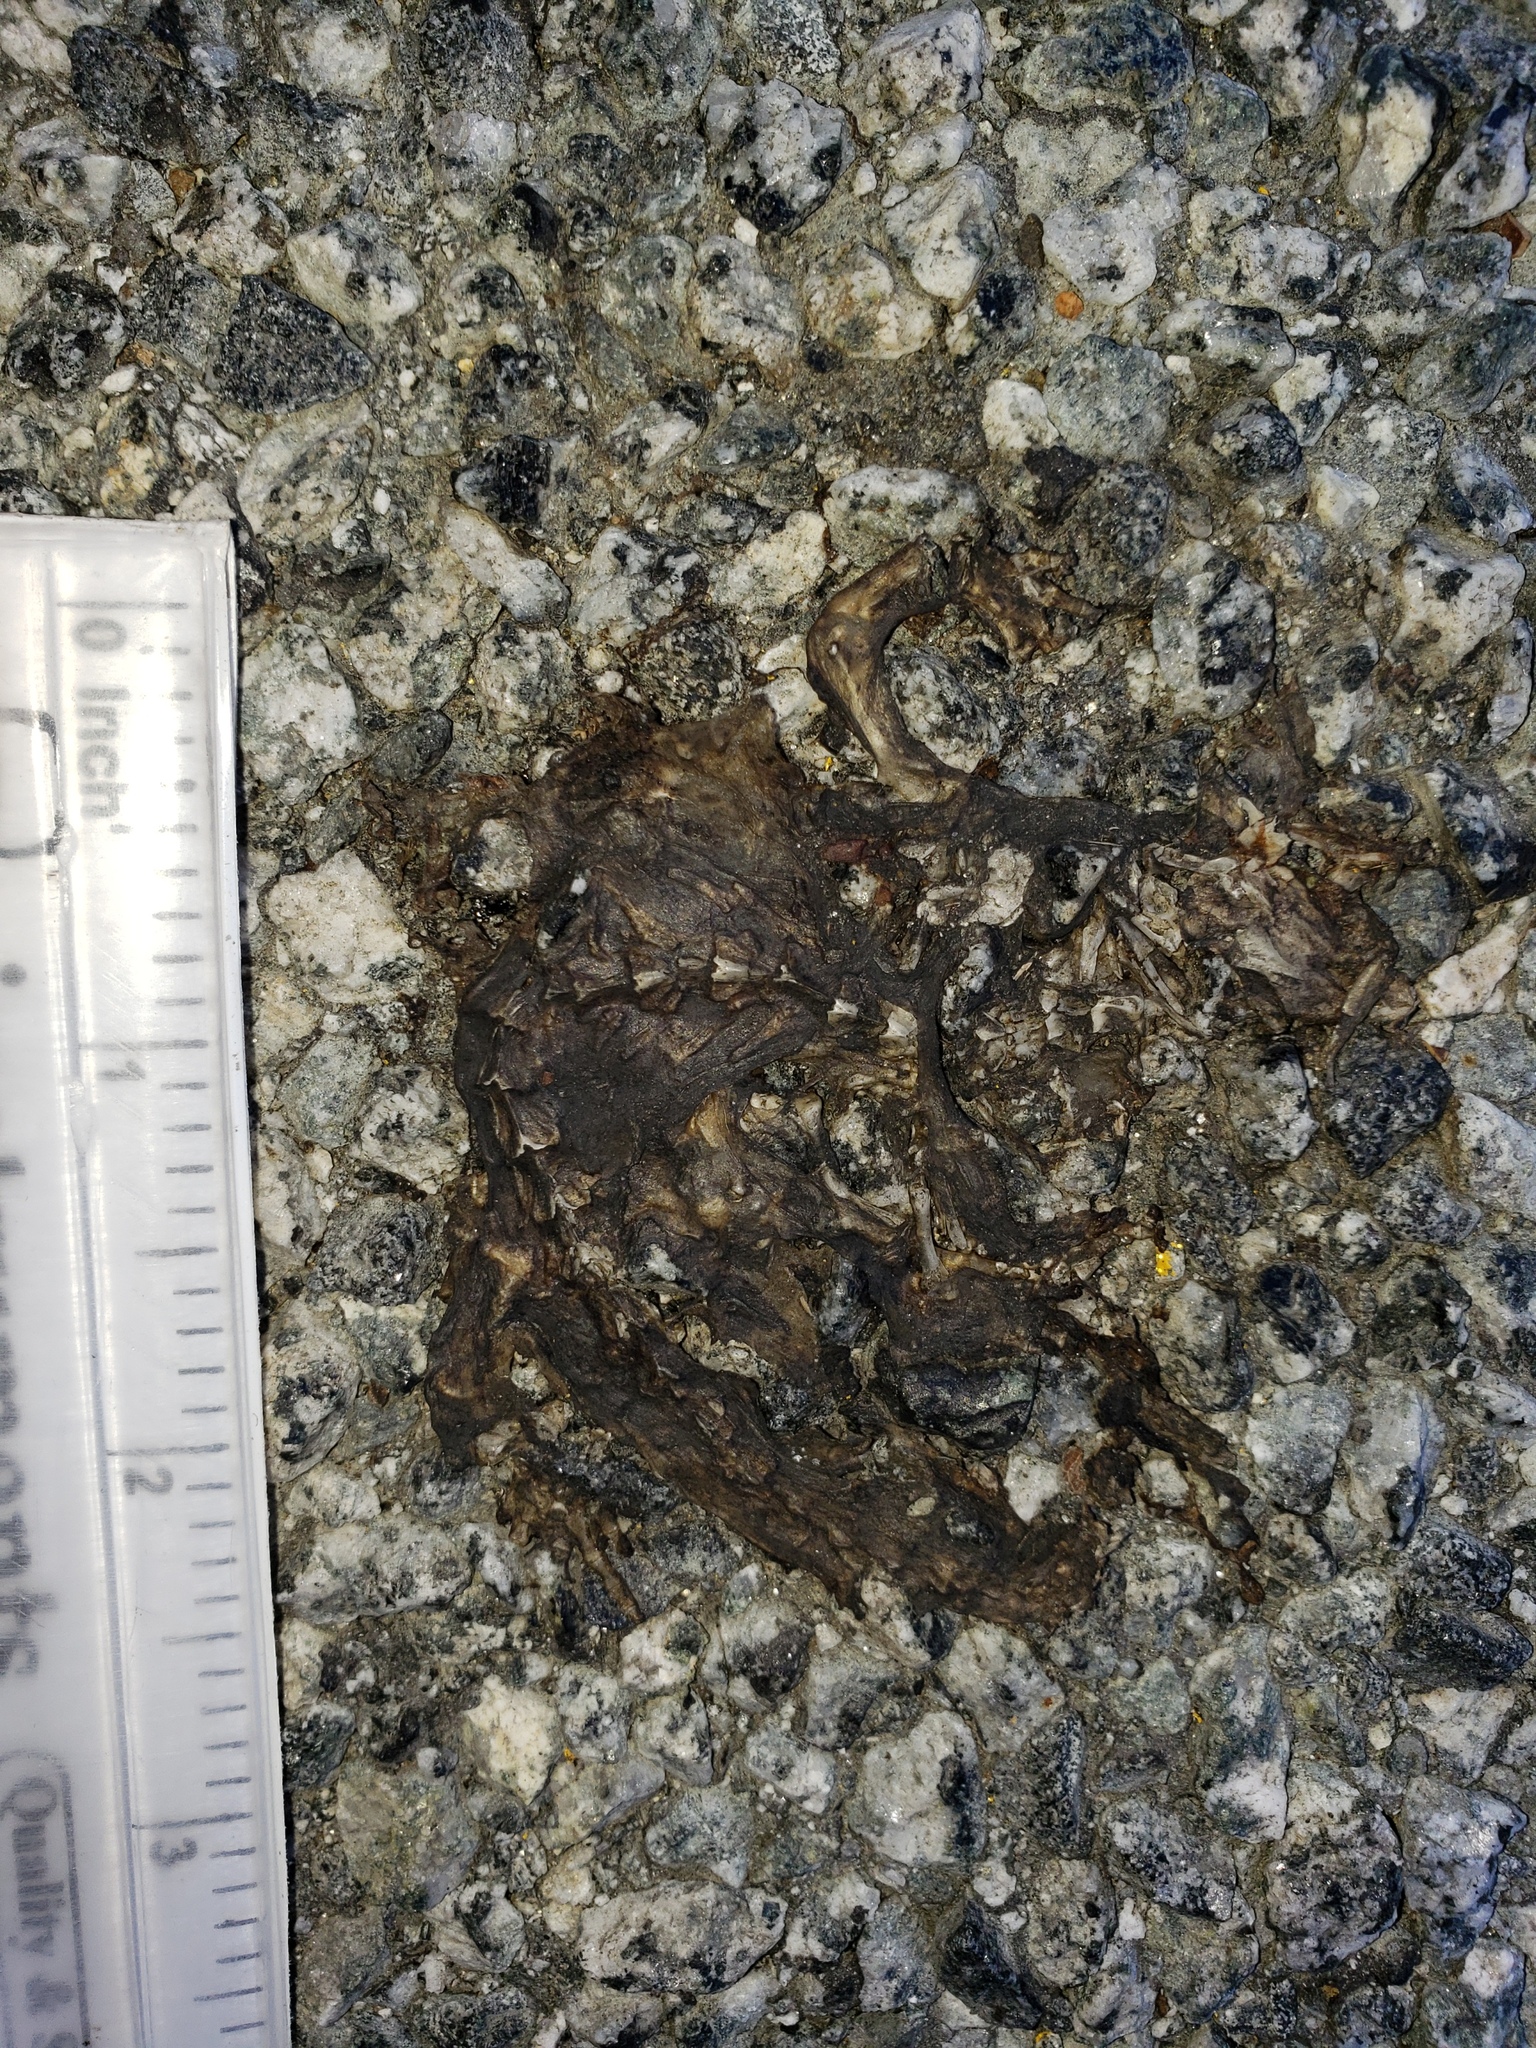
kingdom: Animalia
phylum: Chordata
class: Amphibia
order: Caudata
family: Salamandridae
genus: Taricha
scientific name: Taricha
